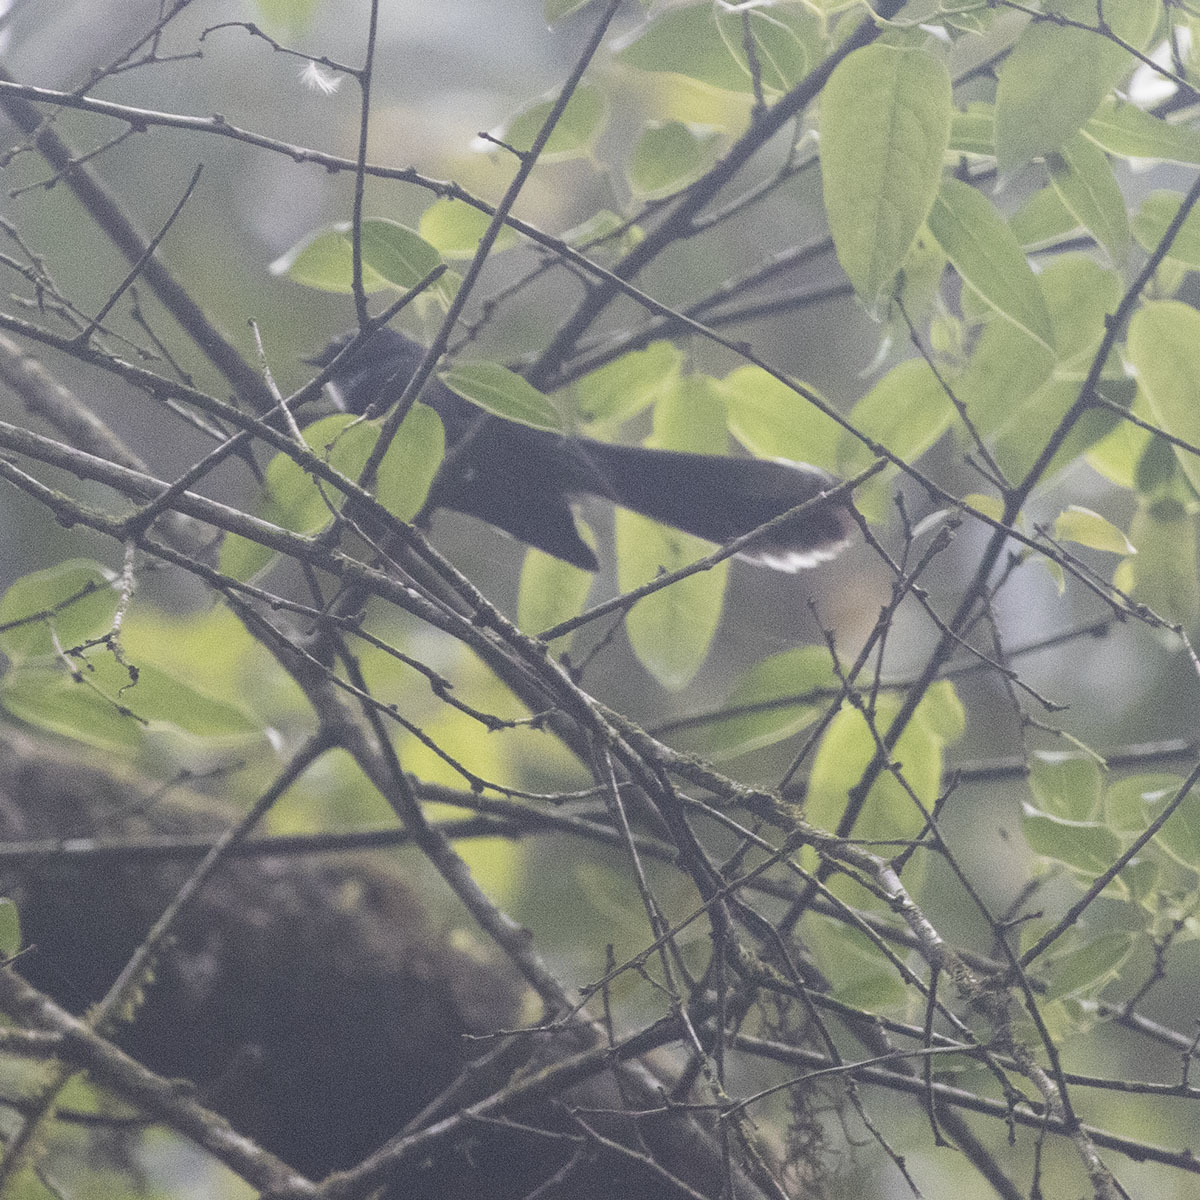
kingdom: Animalia
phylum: Chordata
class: Aves
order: Passeriformes
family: Rhipiduridae
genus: Rhipidura
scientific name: Rhipidura albicollis
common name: White-throated fantail
